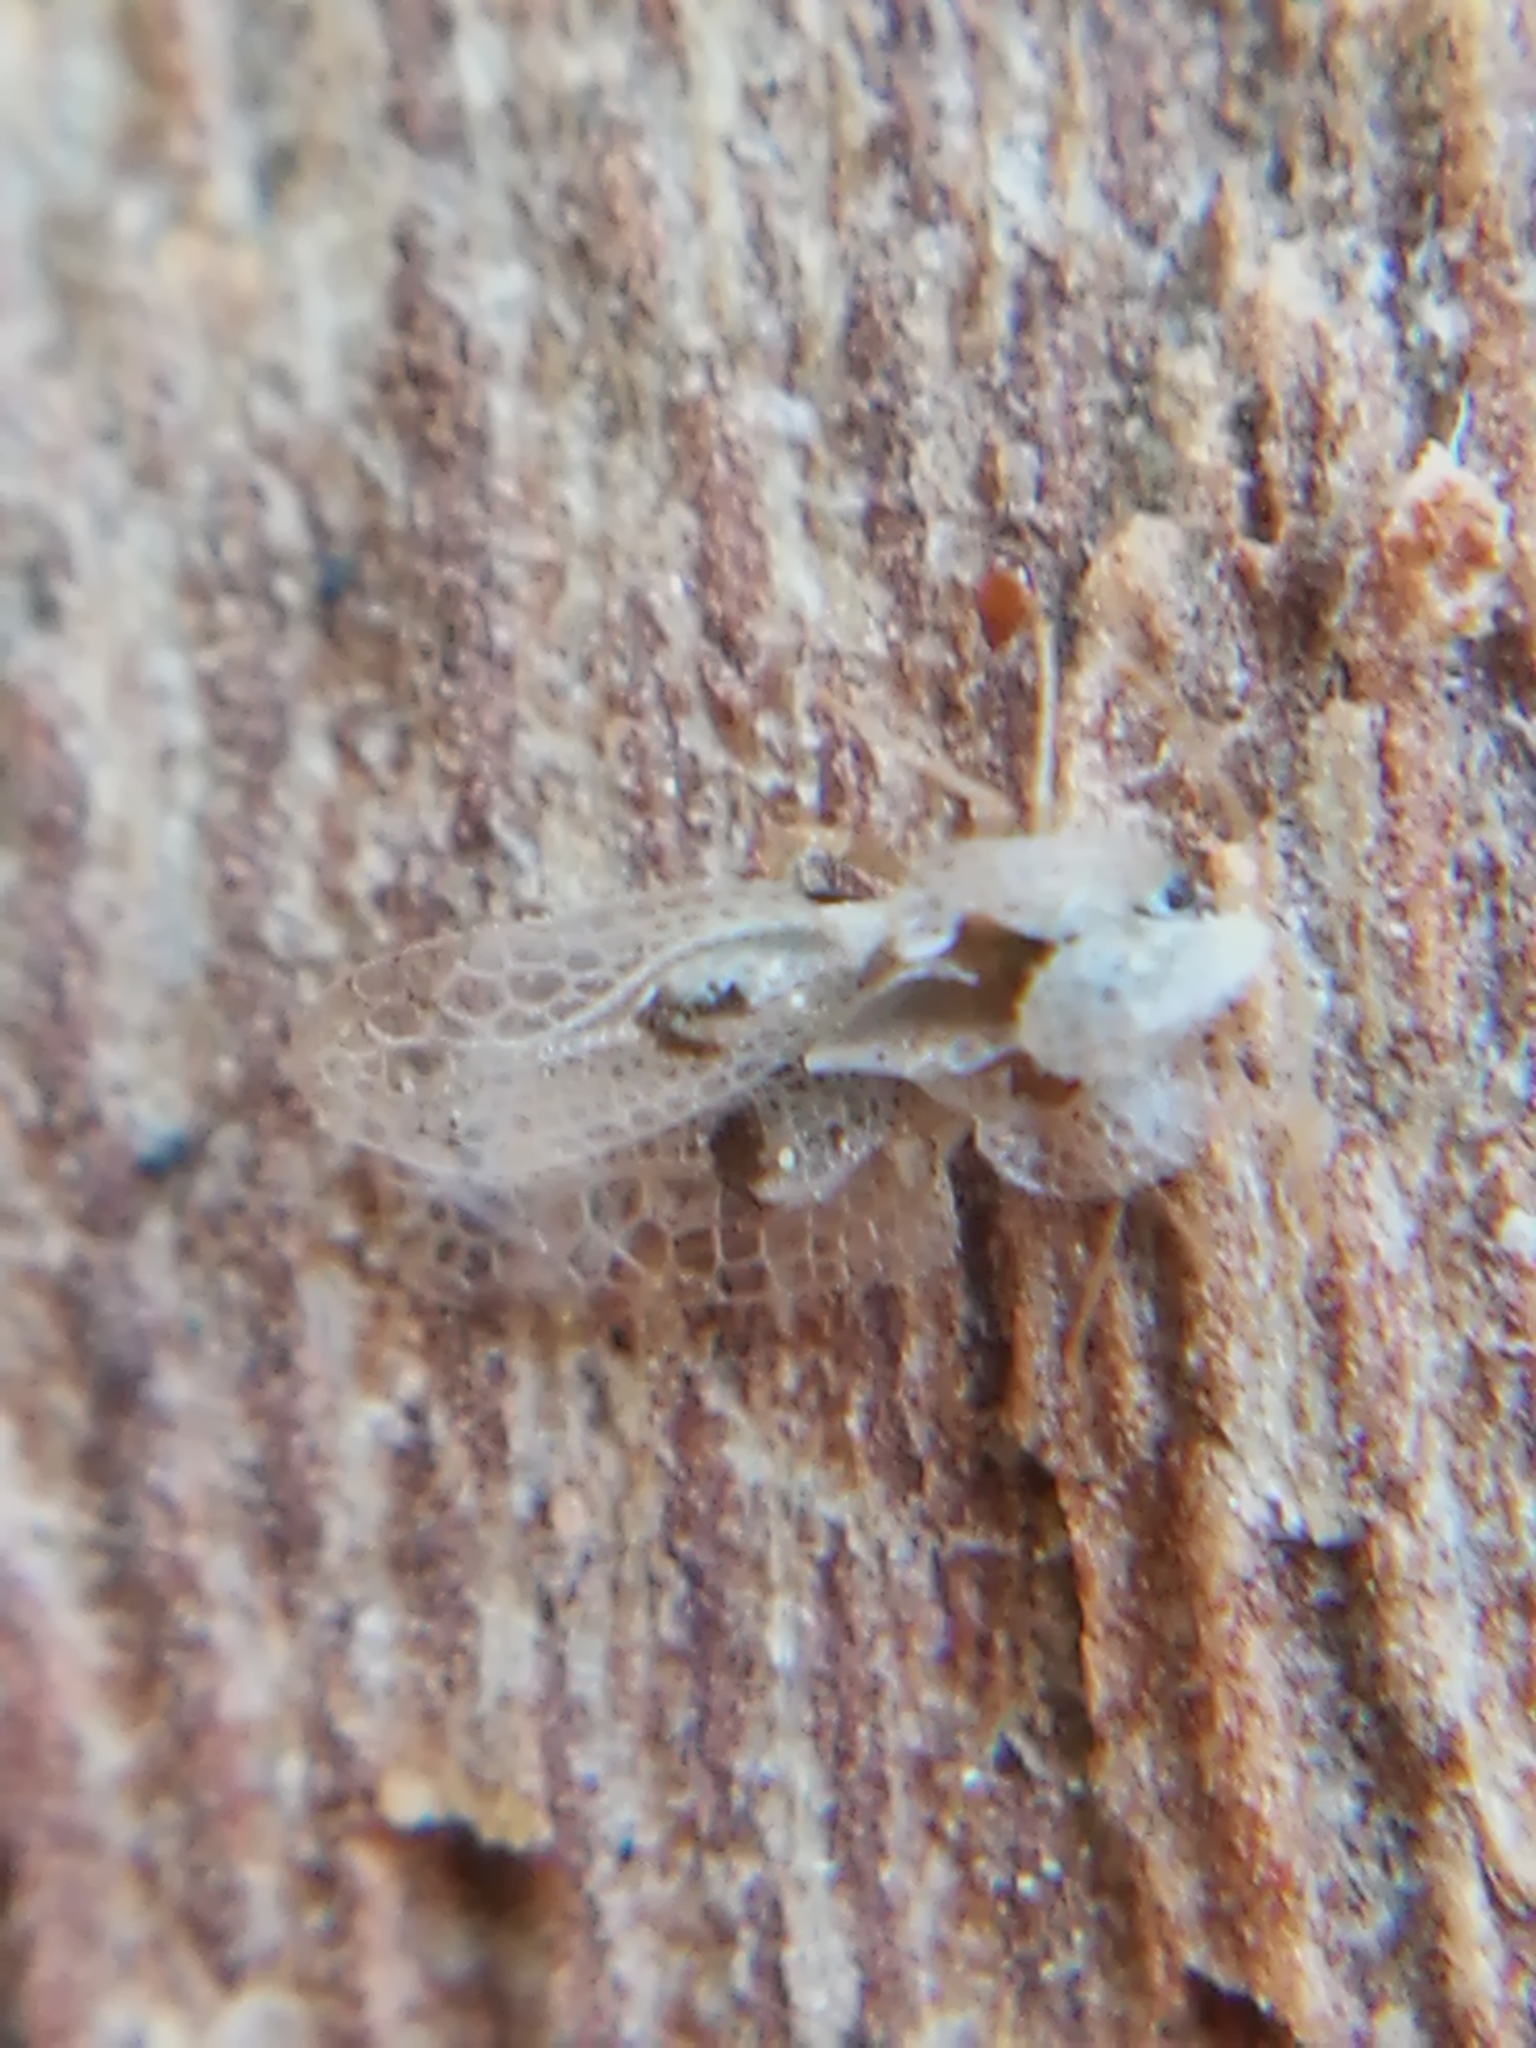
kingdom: Animalia
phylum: Arthropoda
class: Insecta
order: Hemiptera
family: Tingidae
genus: Corythucha
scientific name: Corythucha ciliata
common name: Sycamore lace bug
